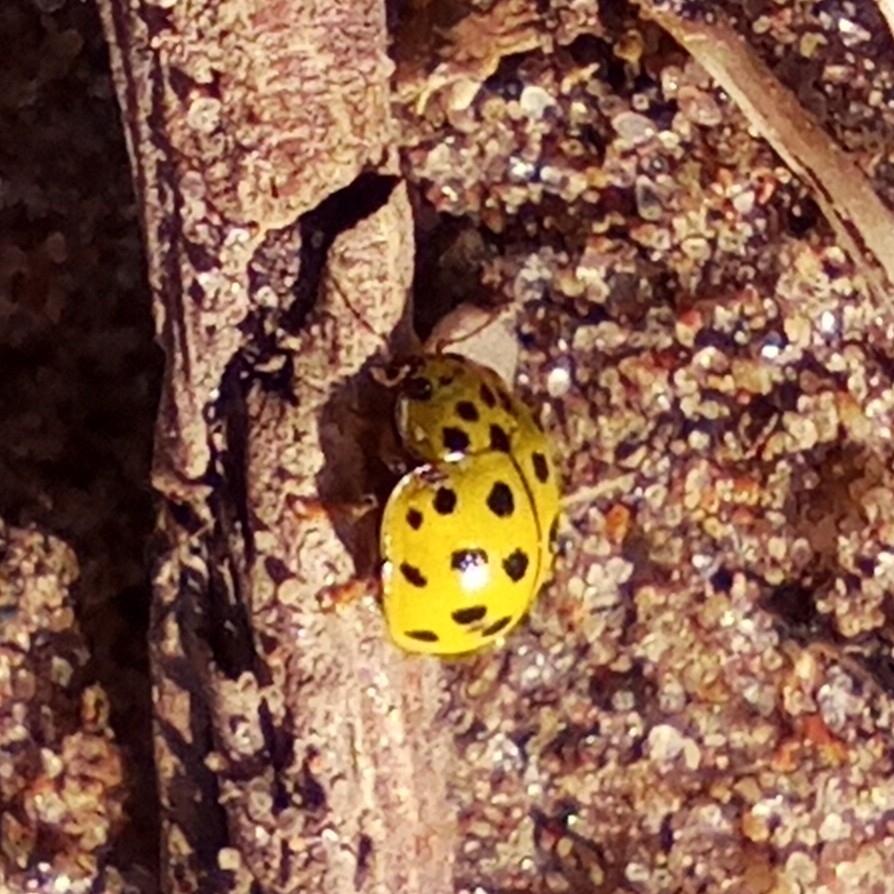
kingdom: Animalia
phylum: Arthropoda
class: Insecta
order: Coleoptera
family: Coccinellidae
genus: Psyllobora
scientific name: Psyllobora vigintiduopunctata
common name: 22-spot ladybird
